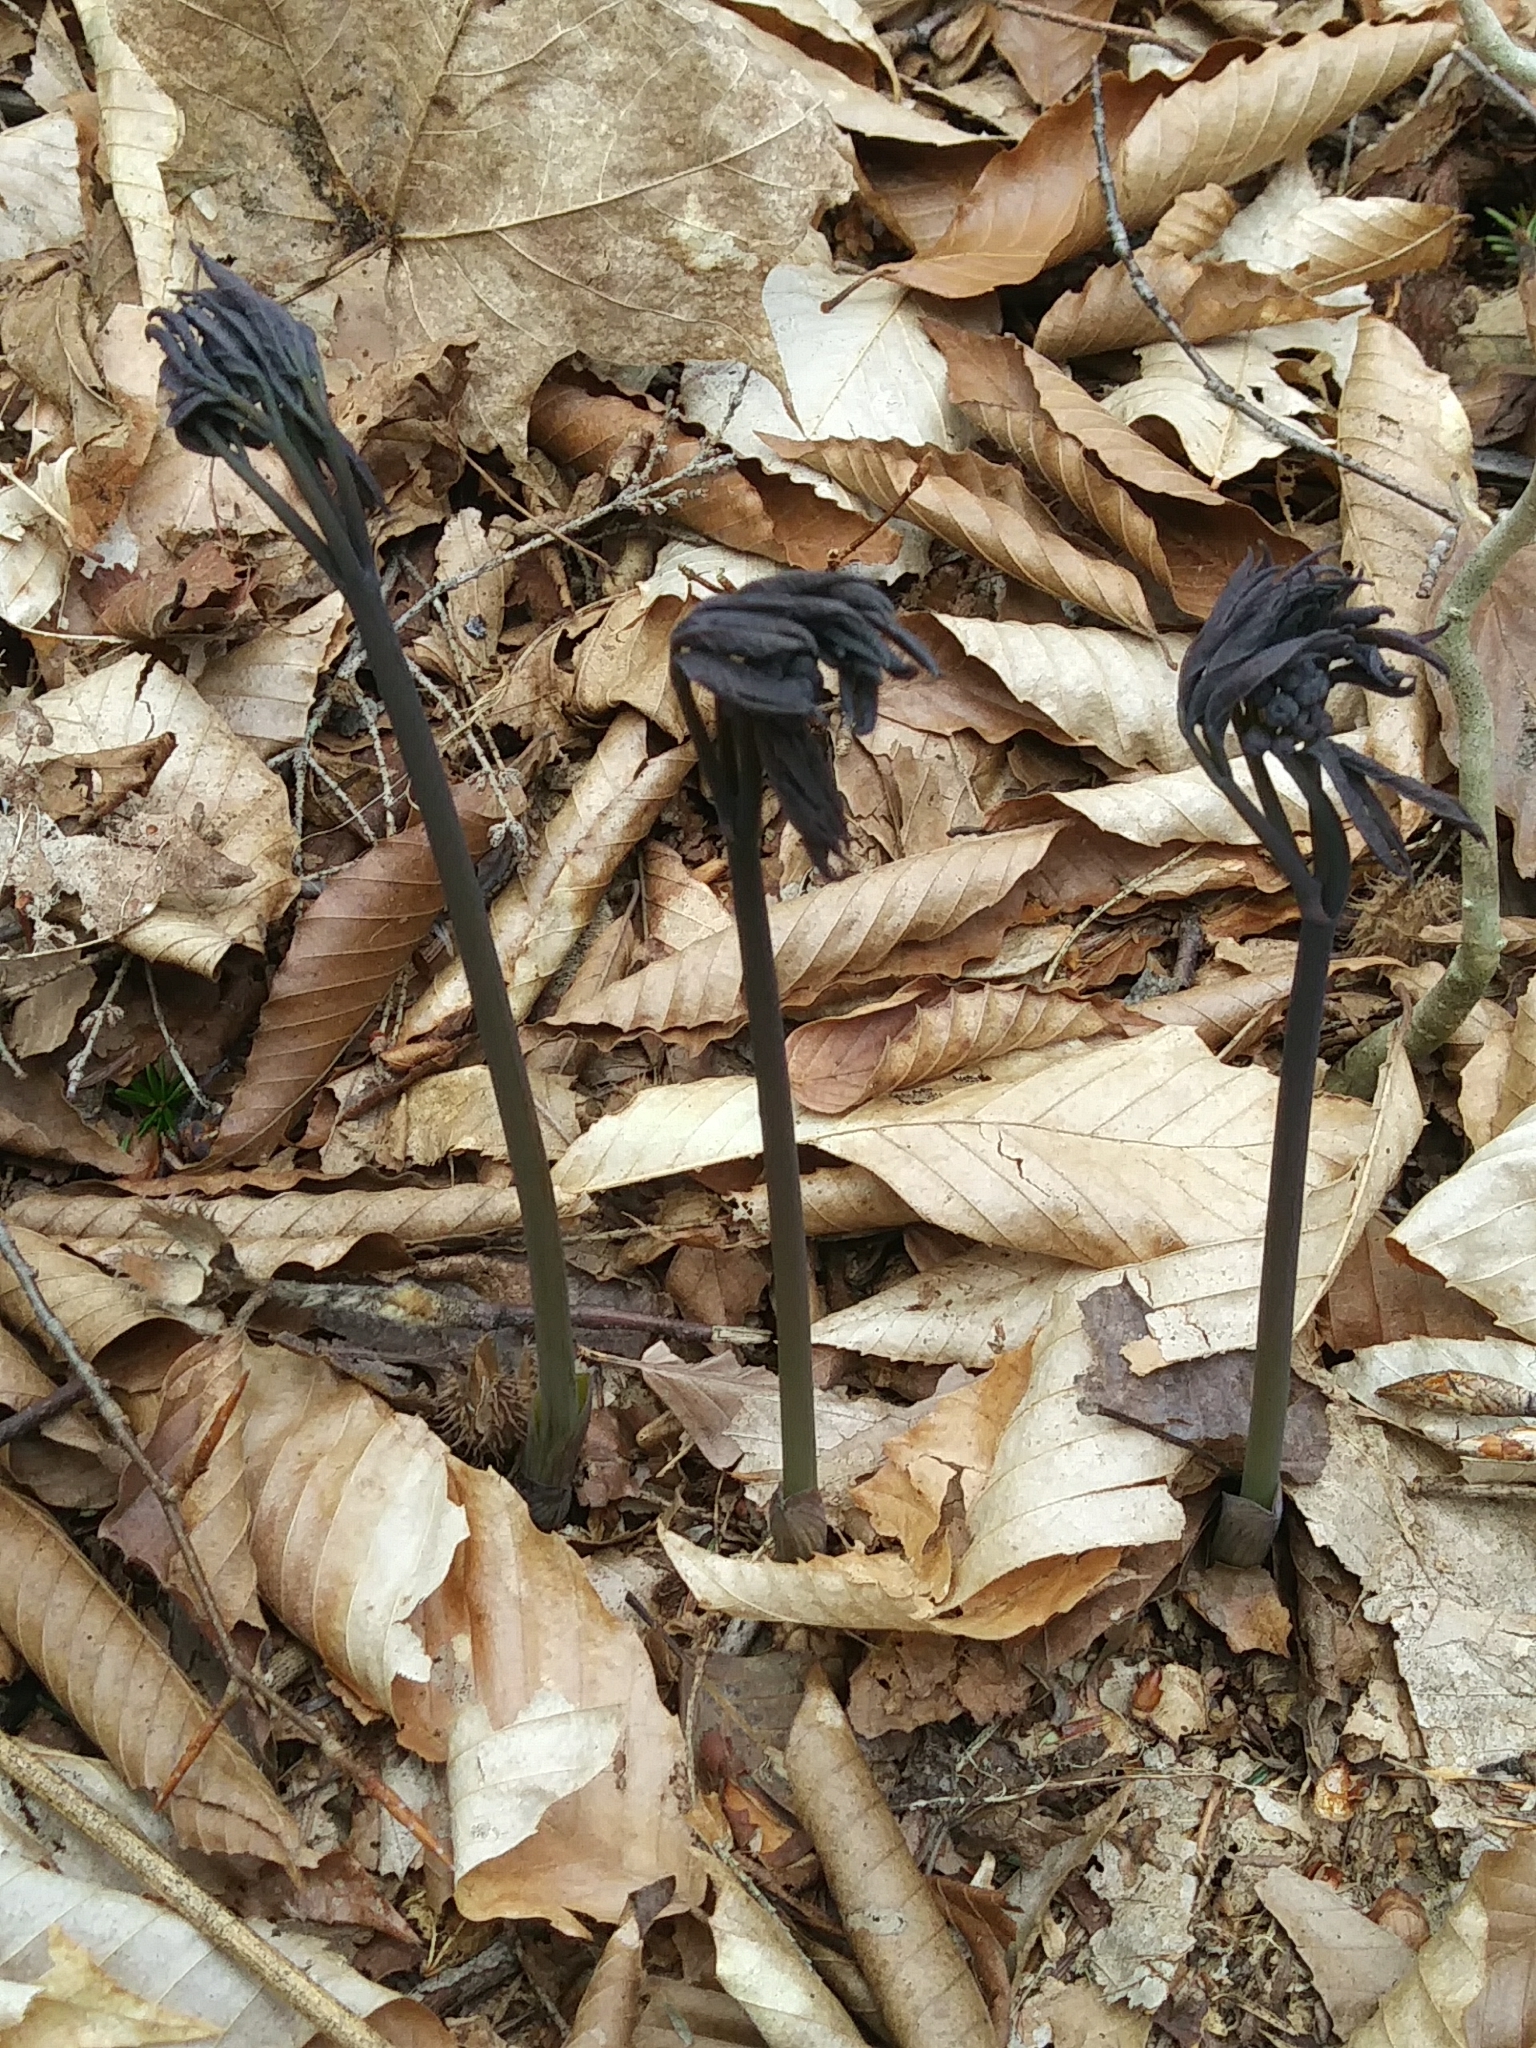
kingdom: Plantae
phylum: Tracheophyta
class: Magnoliopsida
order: Ranunculales
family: Berberidaceae
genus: Caulophyllum
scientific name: Caulophyllum giganteum
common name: Blue cohosh
